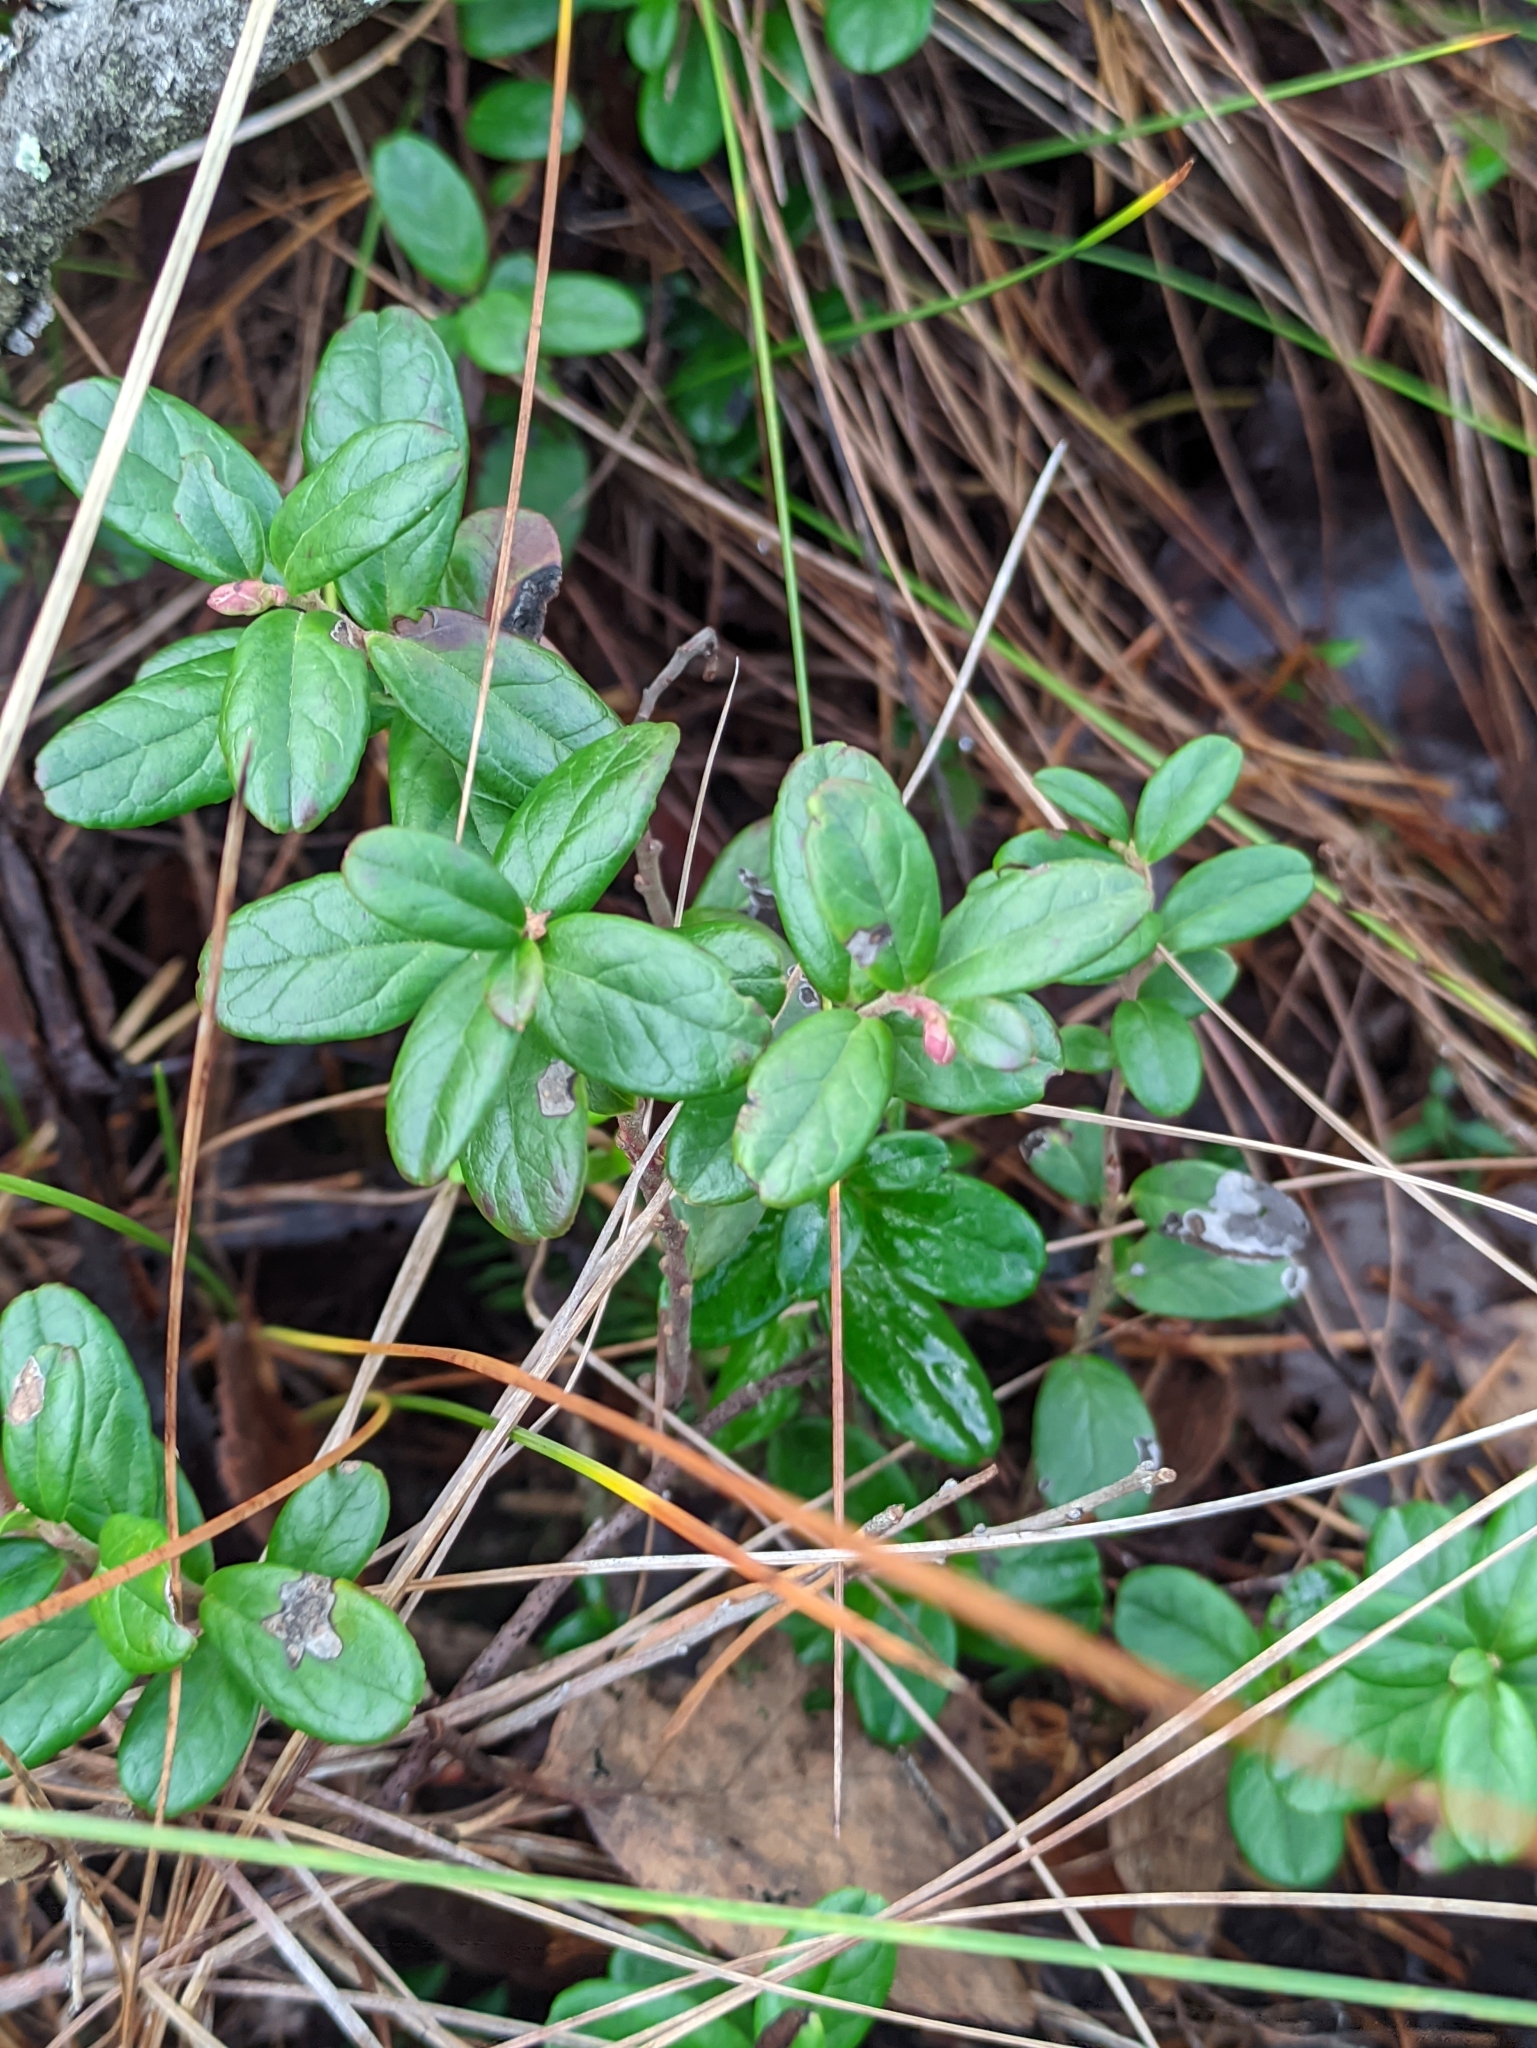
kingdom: Plantae
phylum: Tracheophyta
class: Magnoliopsida
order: Ericales
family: Ericaceae
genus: Vaccinium
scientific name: Vaccinium vitis-idaea
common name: Cowberry
